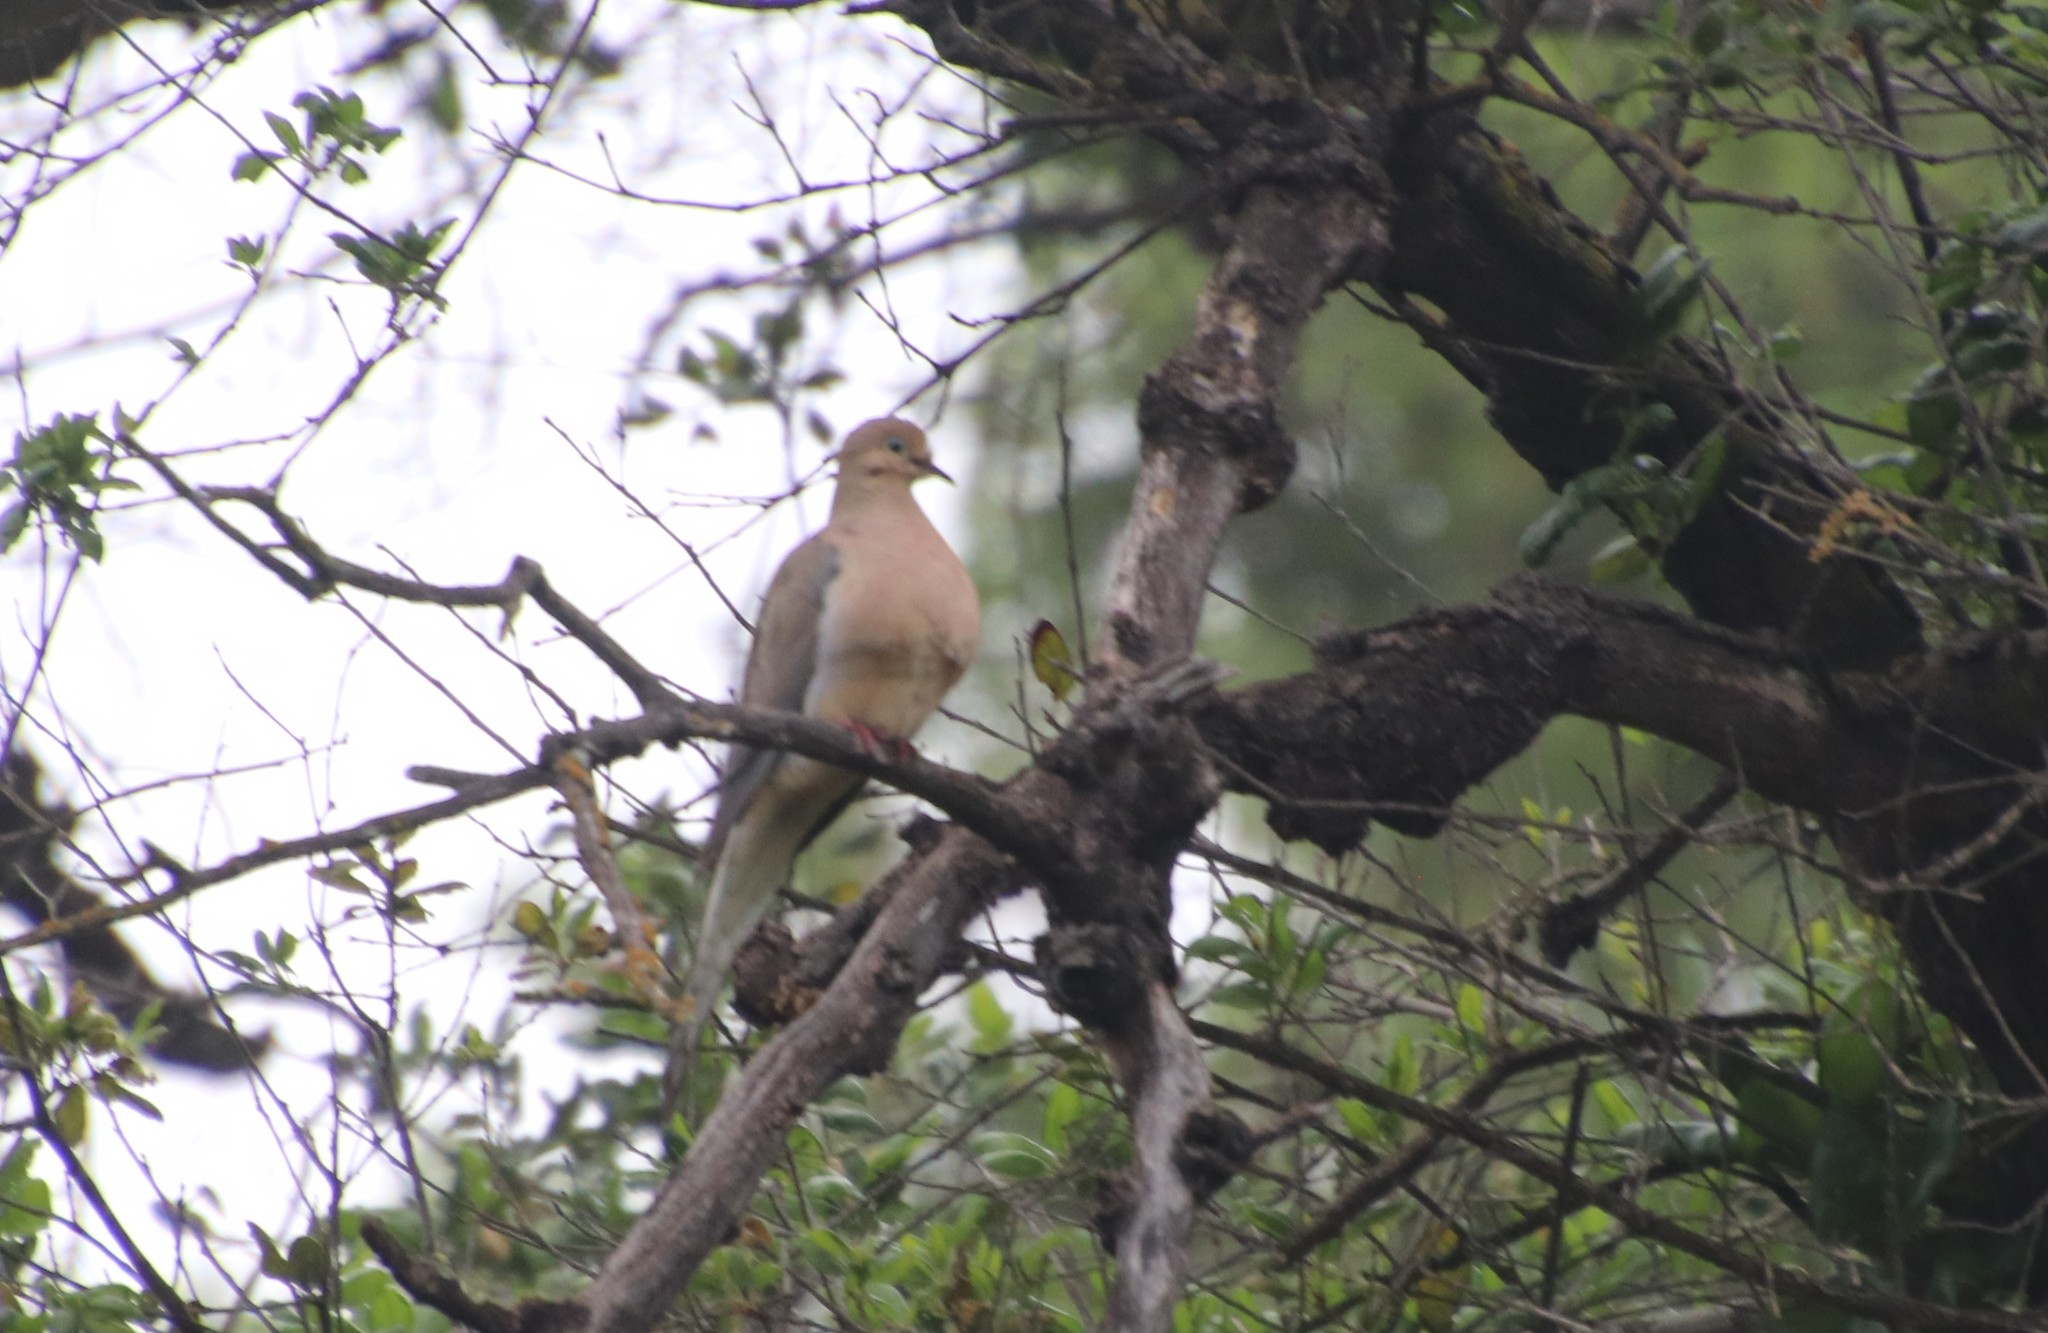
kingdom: Animalia
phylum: Chordata
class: Aves
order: Columbiformes
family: Columbidae
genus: Zenaida
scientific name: Zenaida macroura
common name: Mourning dove
